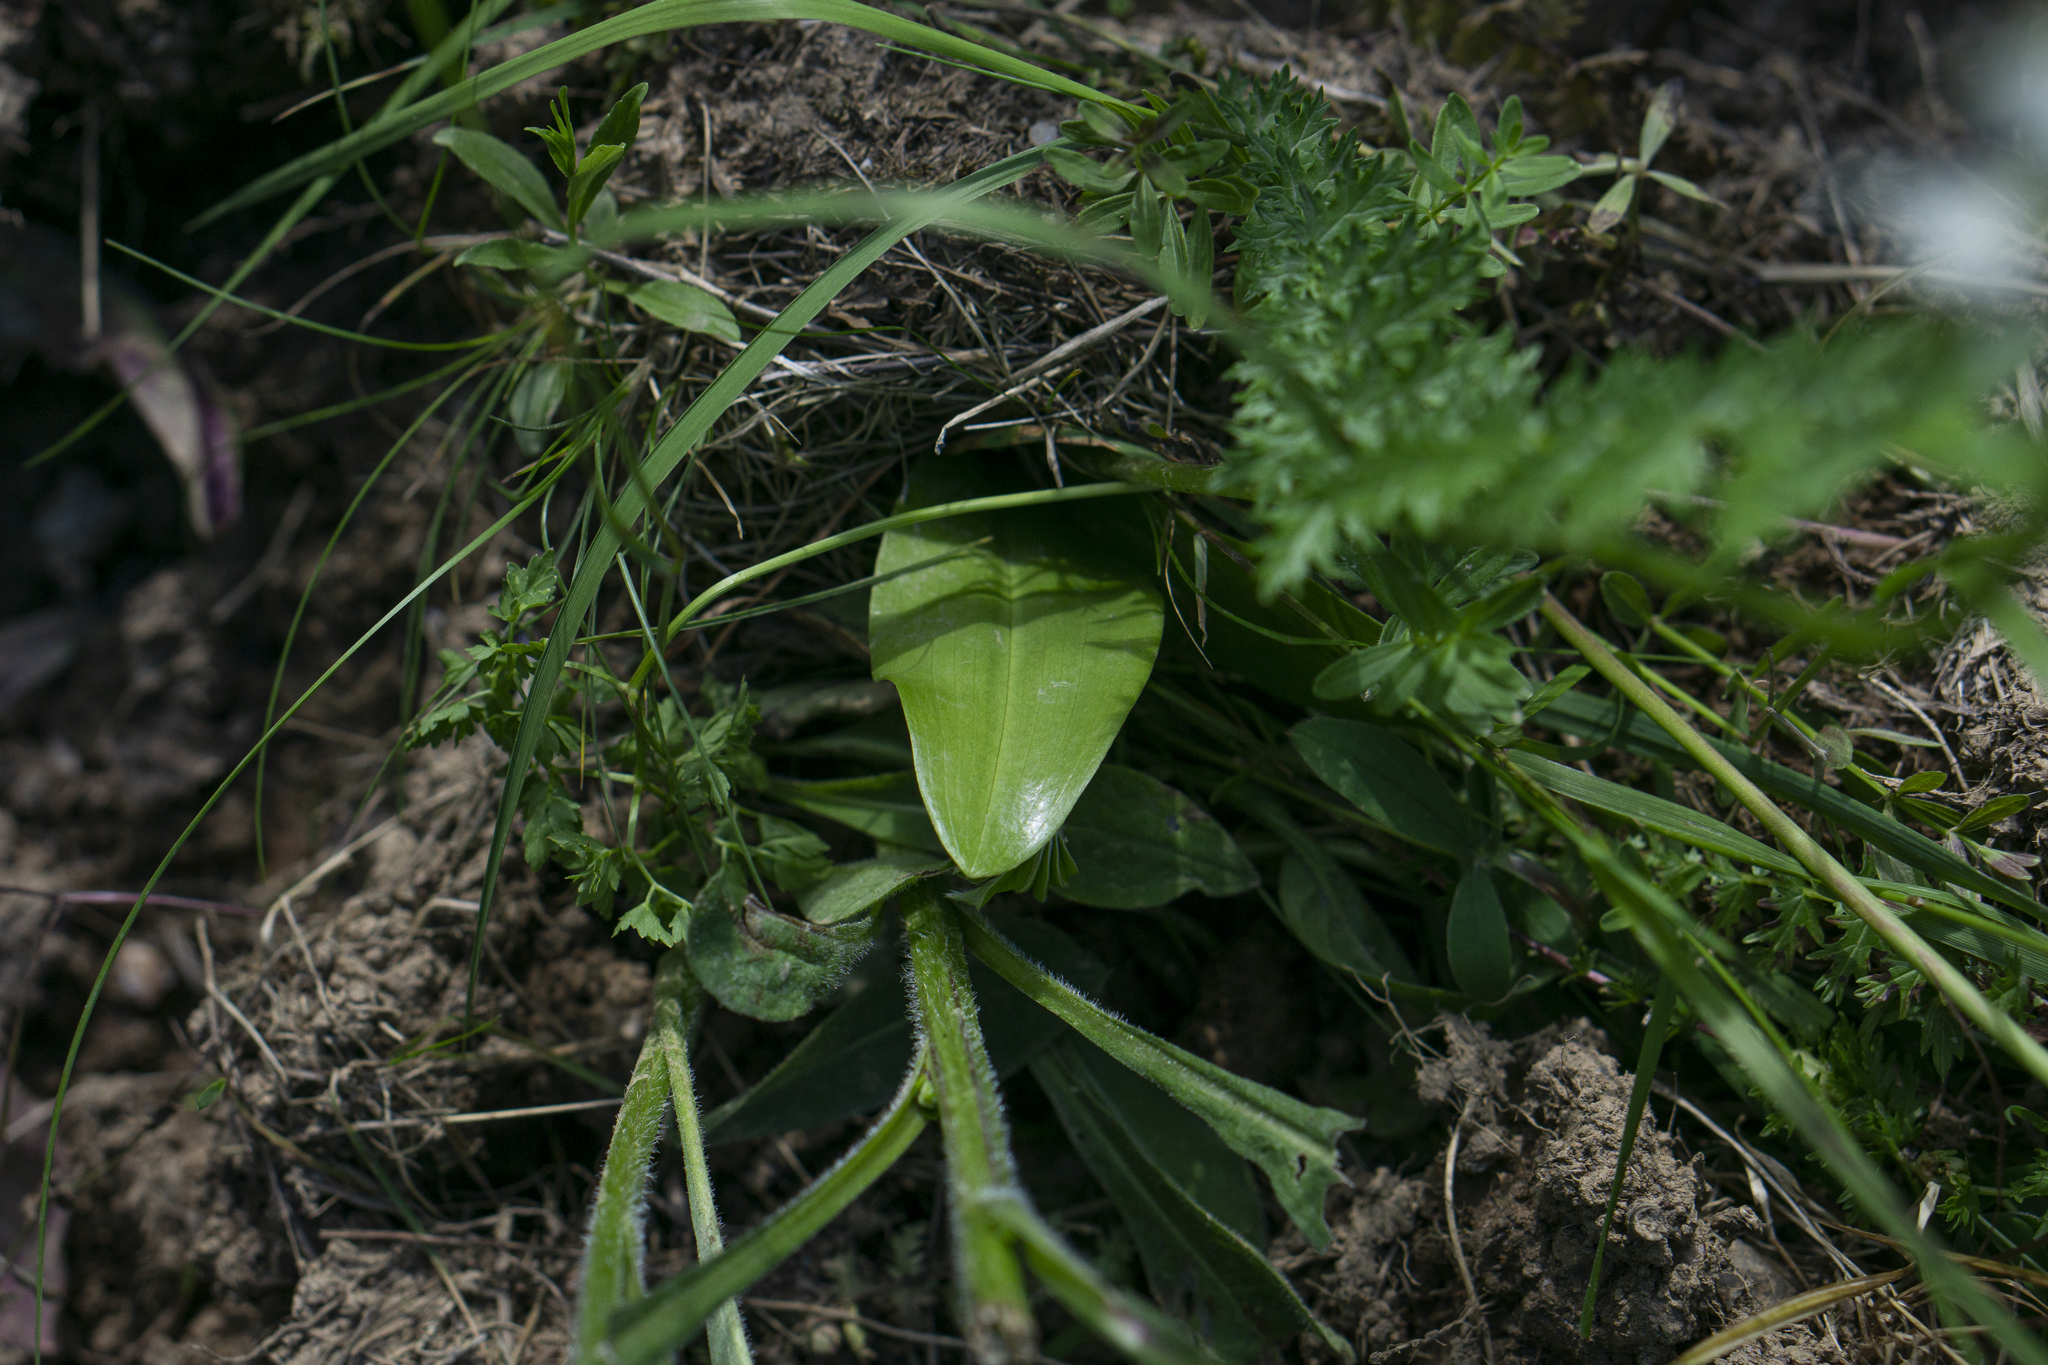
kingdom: Plantae
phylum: Tracheophyta
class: Liliopsida
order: Asparagales
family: Orchidaceae
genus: Platanthera
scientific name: Platanthera bifolia
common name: Lesser butterfly-orchid
